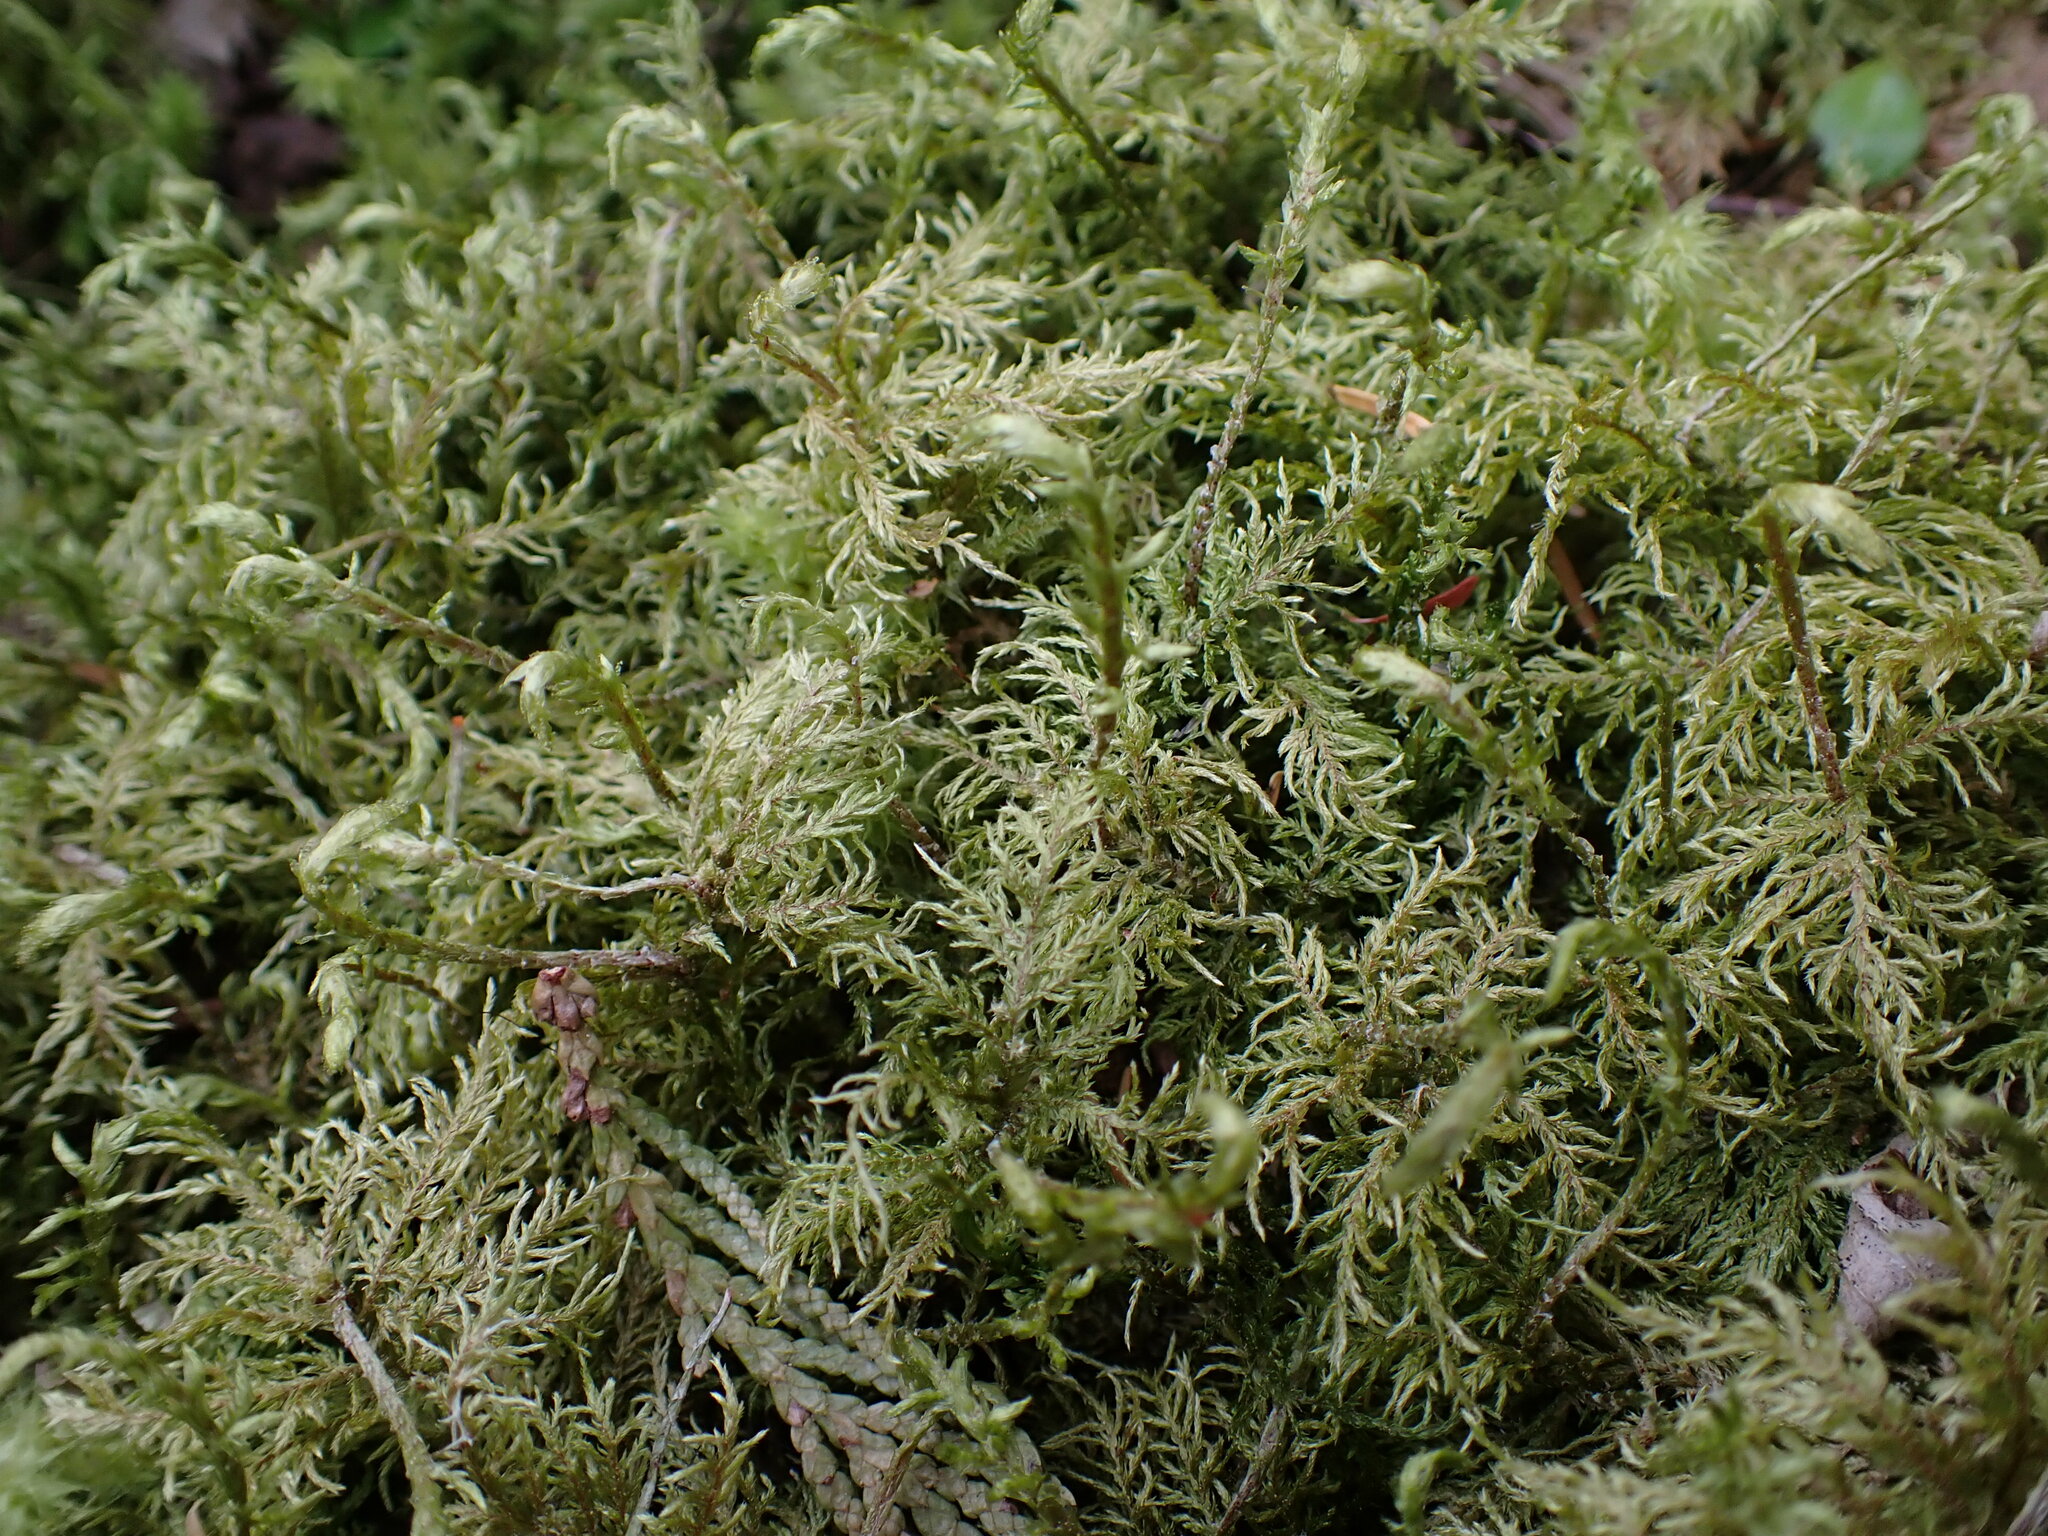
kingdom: Plantae
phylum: Bryophyta
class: Bryopsida
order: Hypnales
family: Hylocomiaceae
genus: Hylocomium
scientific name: Hylocomium splendens
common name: Stairstep moss
